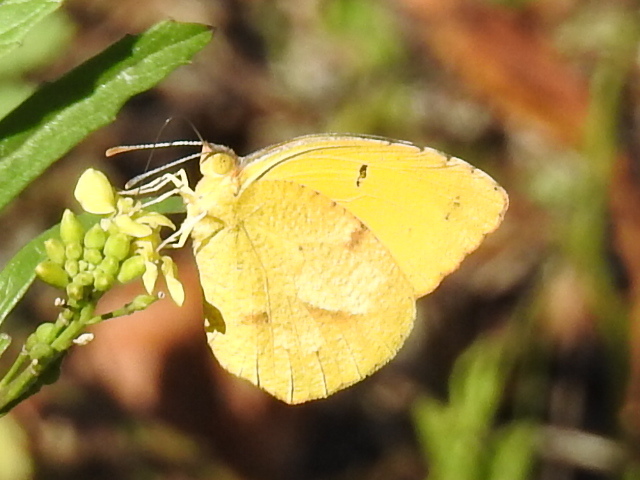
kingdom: Animalia
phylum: Arthropoda
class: Insecta
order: Lepidoptera
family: Pieridae
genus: Abaeis
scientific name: Abaeis nicippe
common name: Sleepy orange
